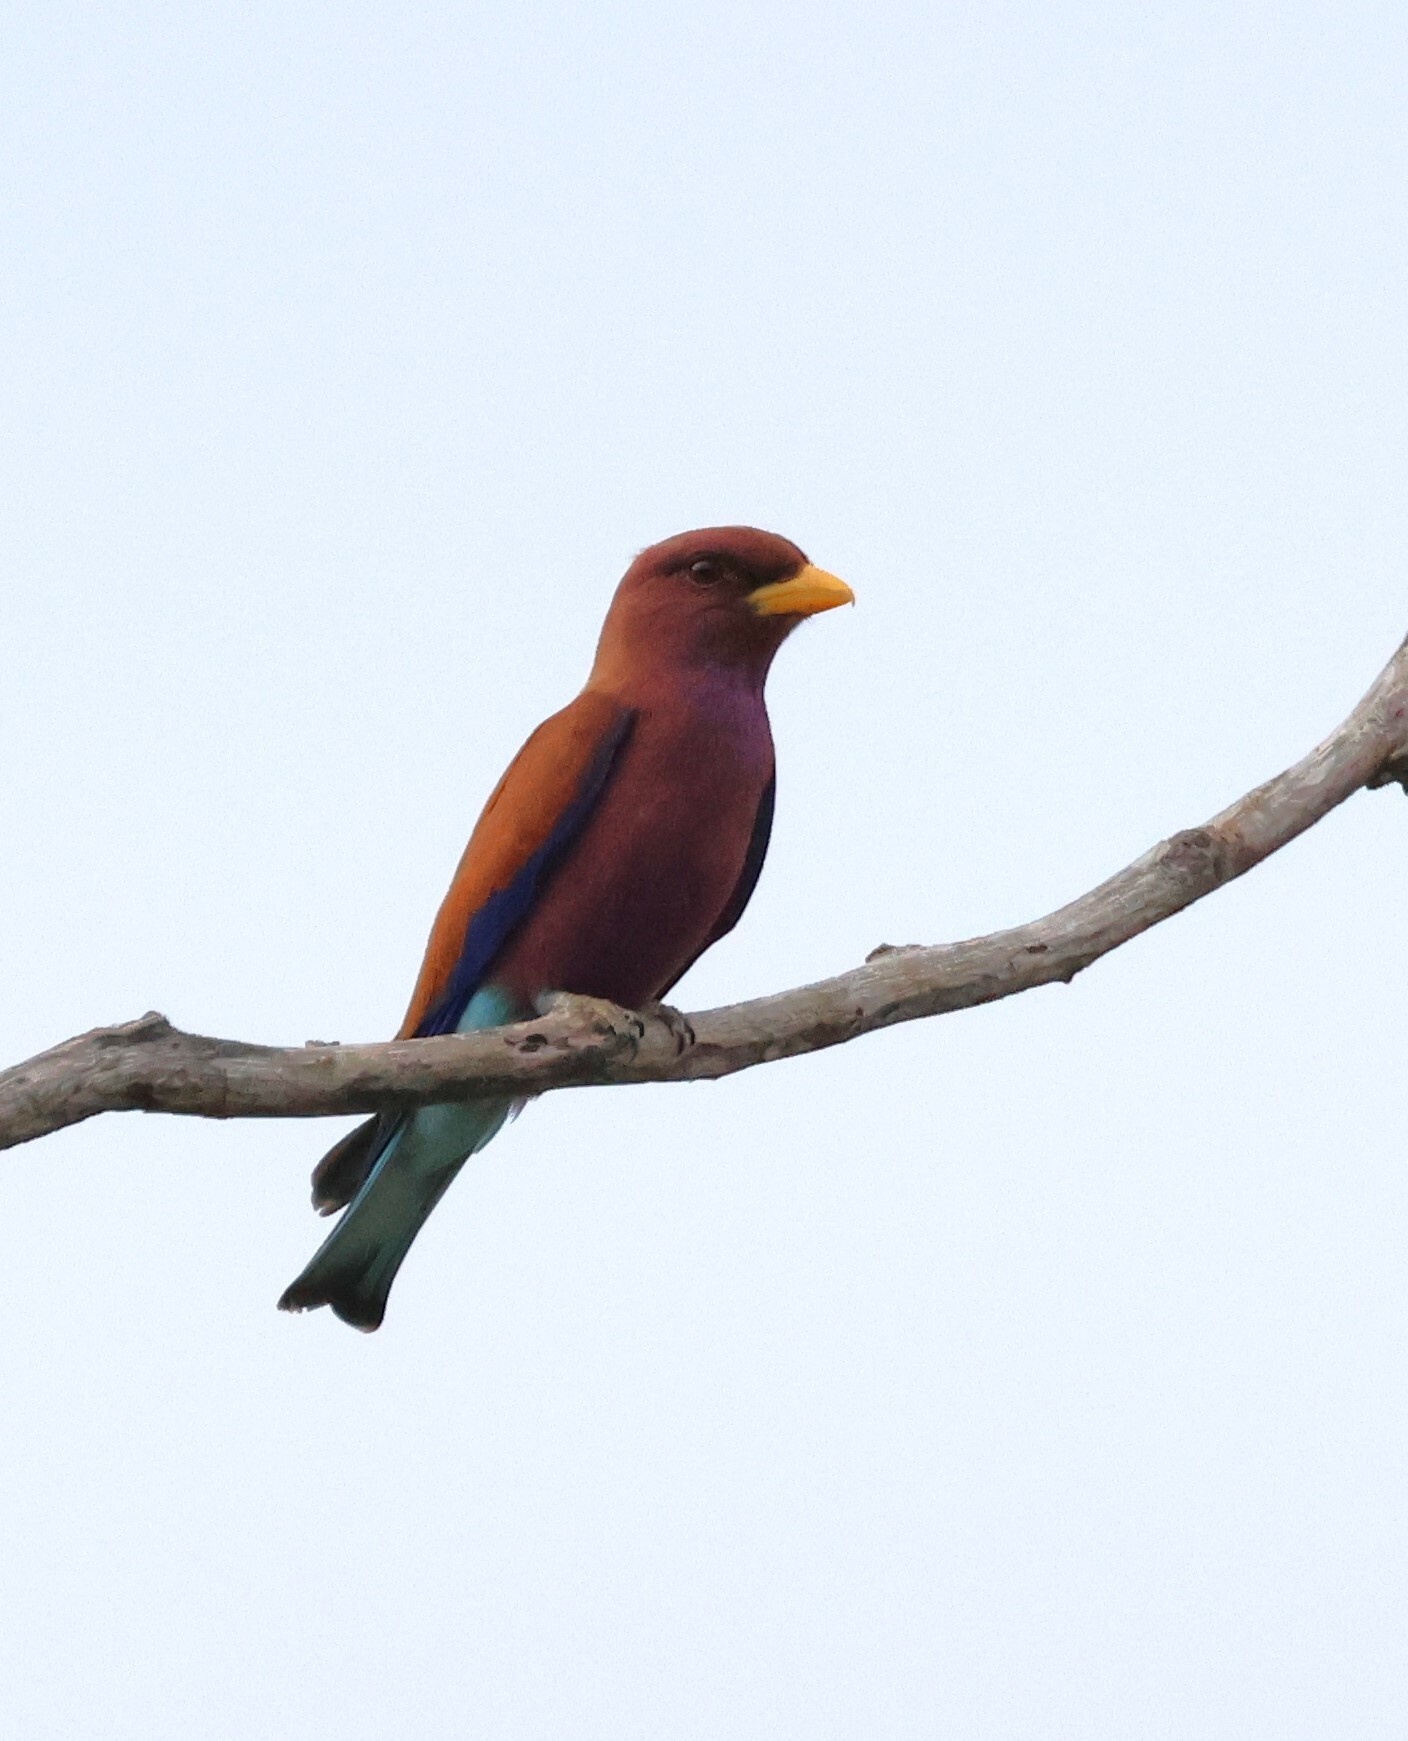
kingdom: Animalia
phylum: Chordata
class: Aves
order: Coraciiformes
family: Coraciidae
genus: Eurystomus
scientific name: Eurystomus glaucurus
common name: Broad-billed roller
